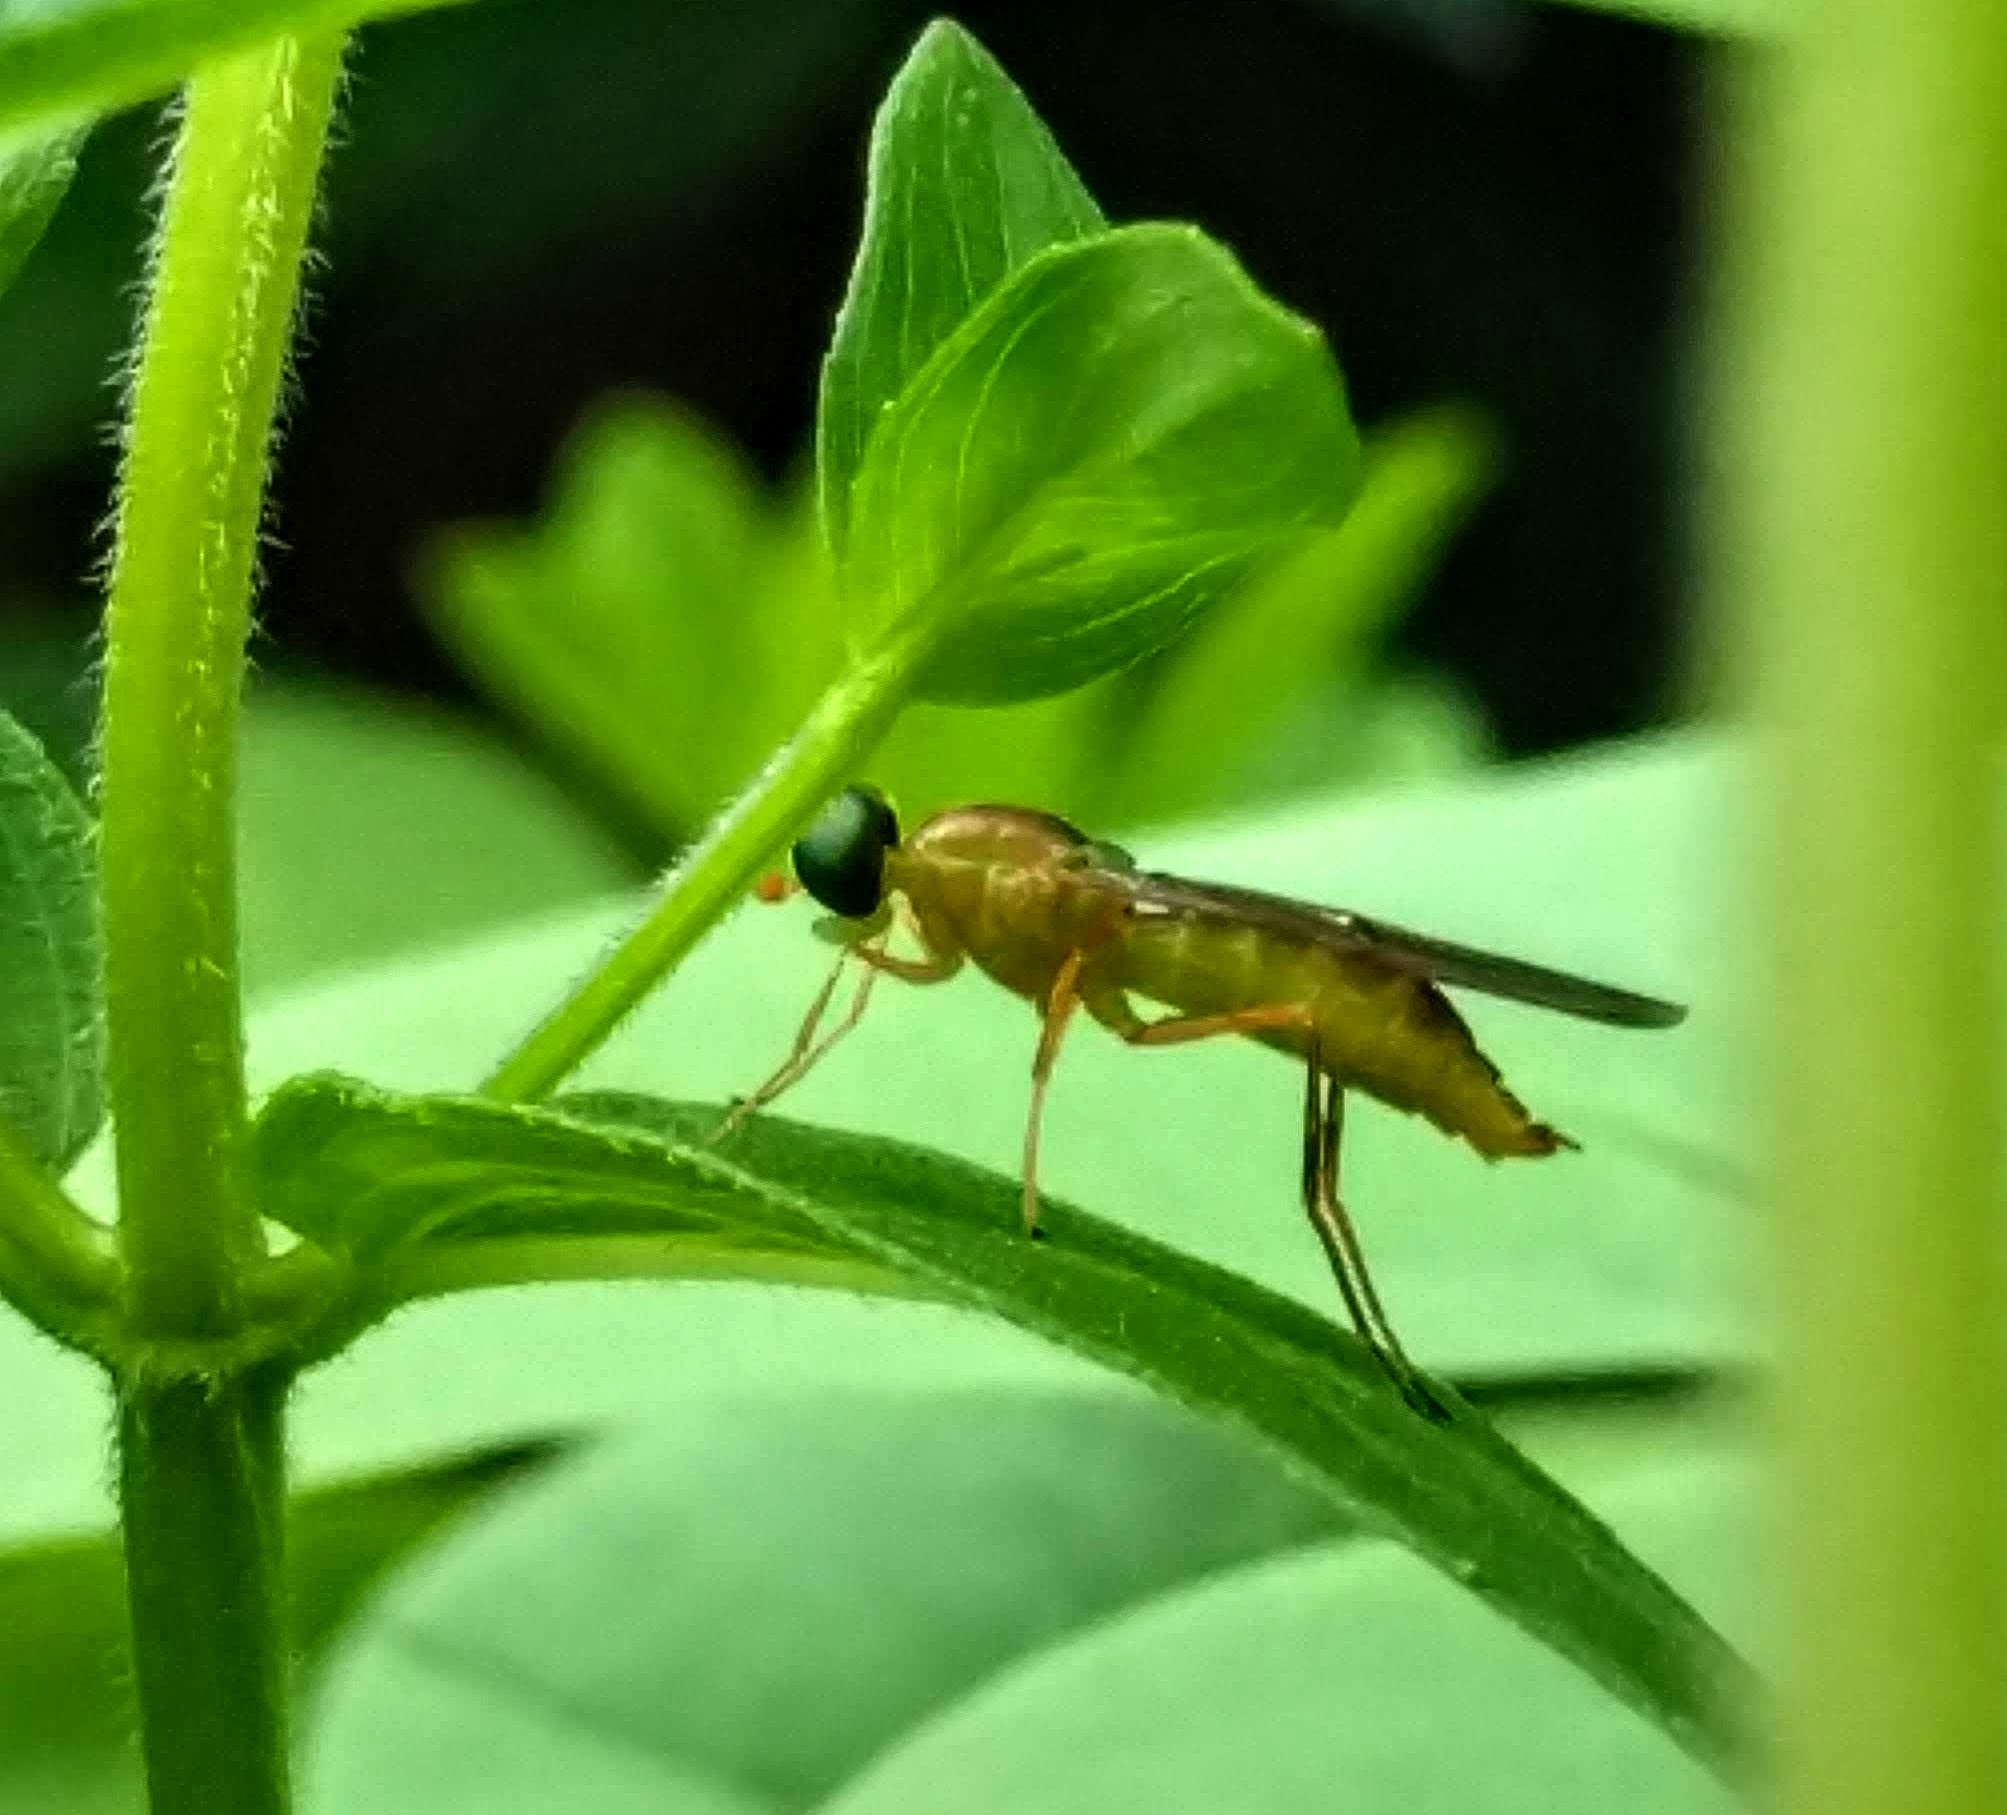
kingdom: Animalia
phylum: Arthropoda
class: Insecta
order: Diptera
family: Stratiomyidae
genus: Ptecticus
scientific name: Ptecticus trivittatus
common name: Compost fly
